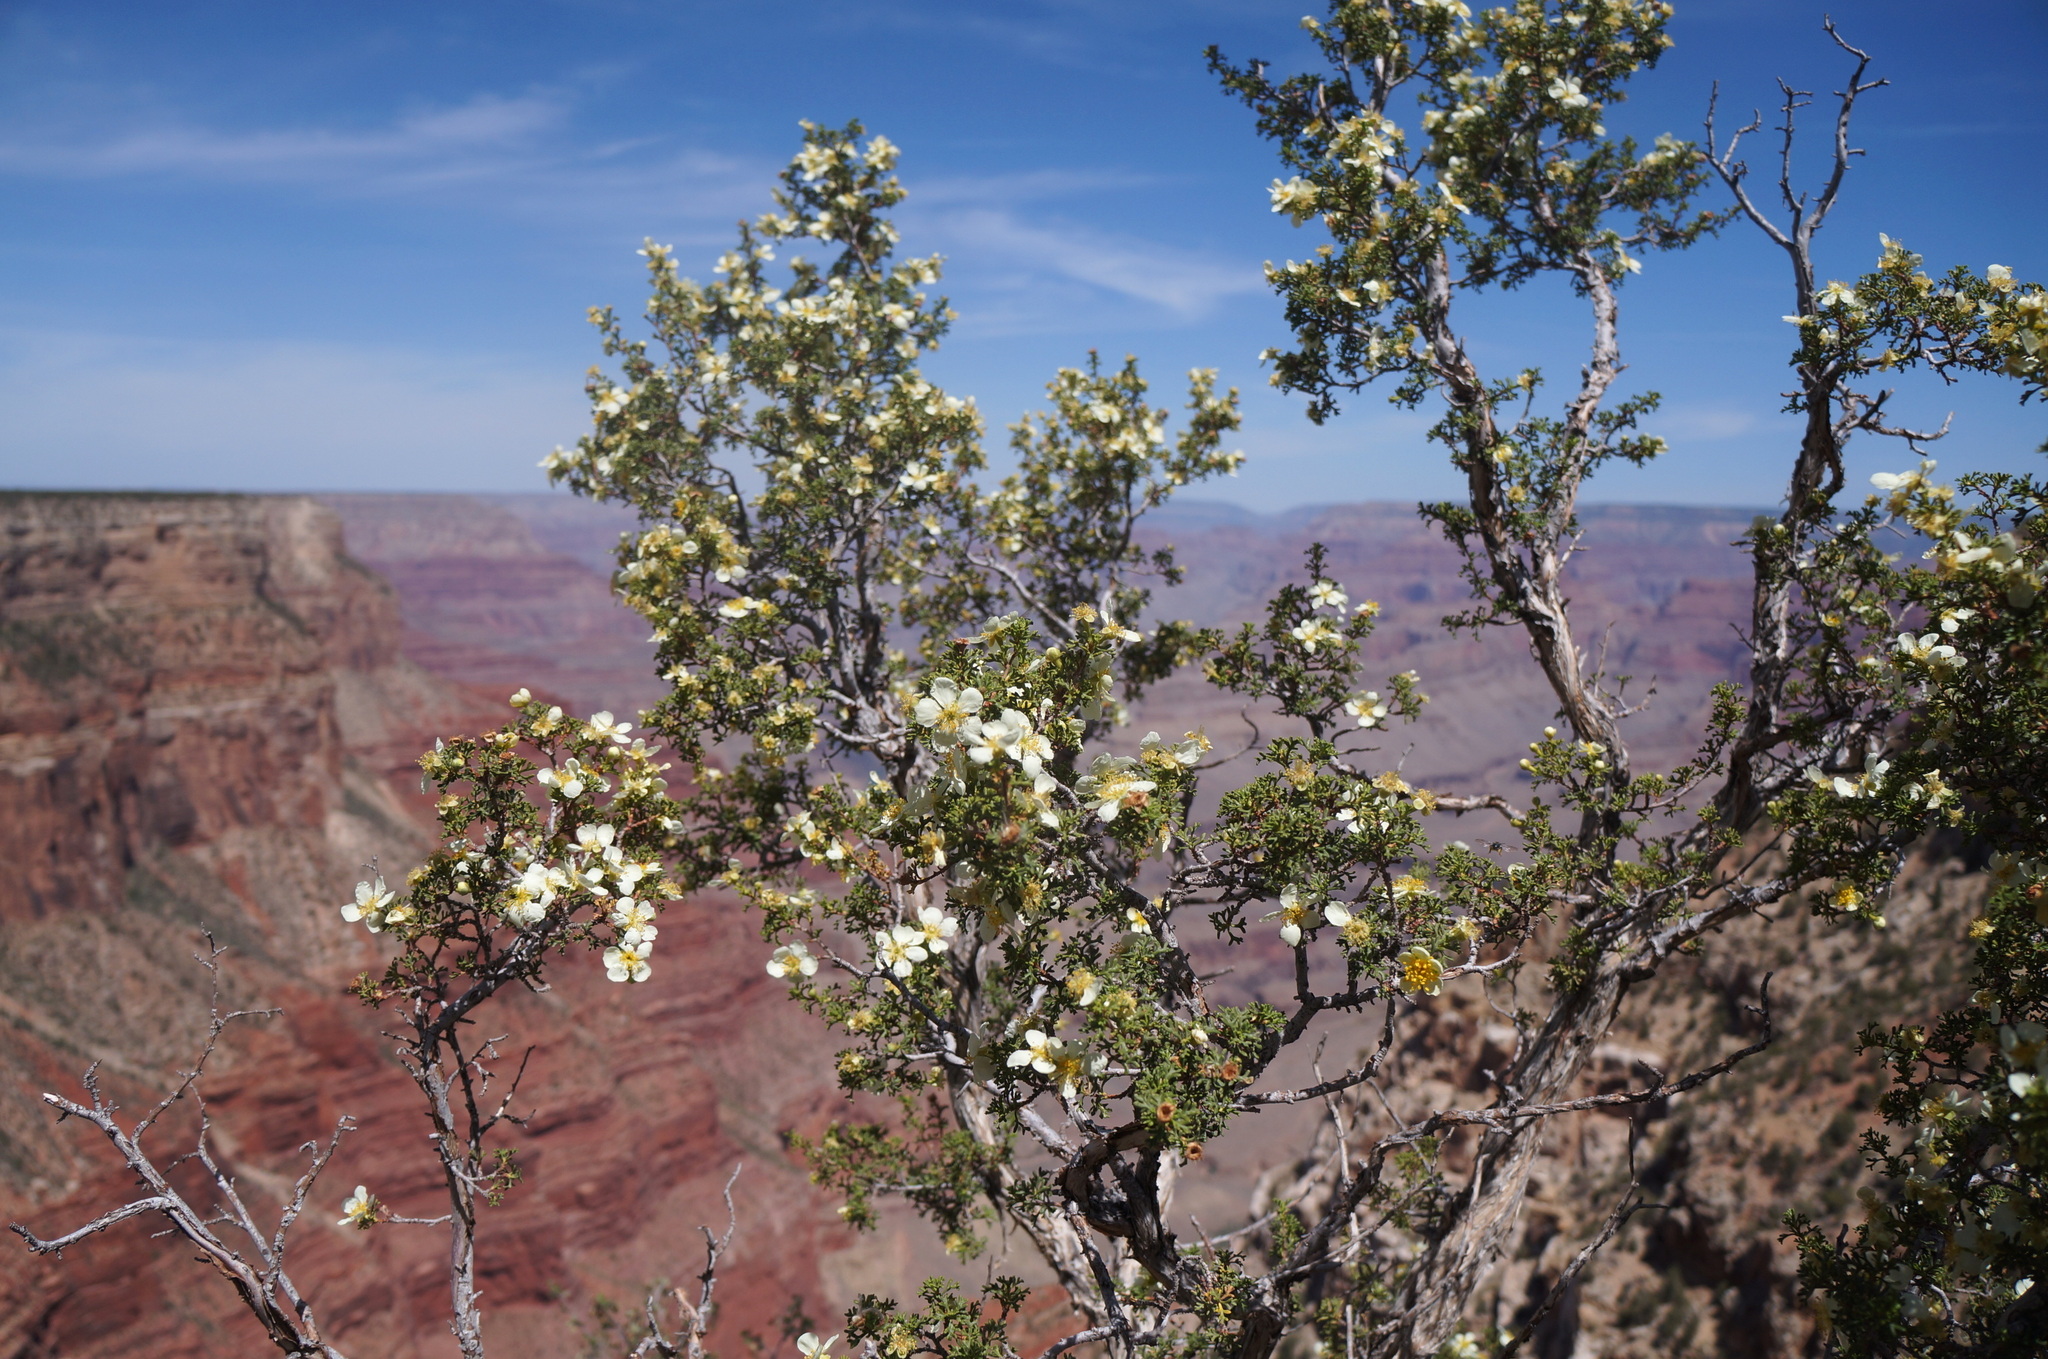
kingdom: Plantae
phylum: Tracheophyta
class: Magnoliopsida
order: Rosales
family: Rosaceae
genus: Purshia
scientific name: Purshia stansburiana
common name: Stansbury's cliffrose
